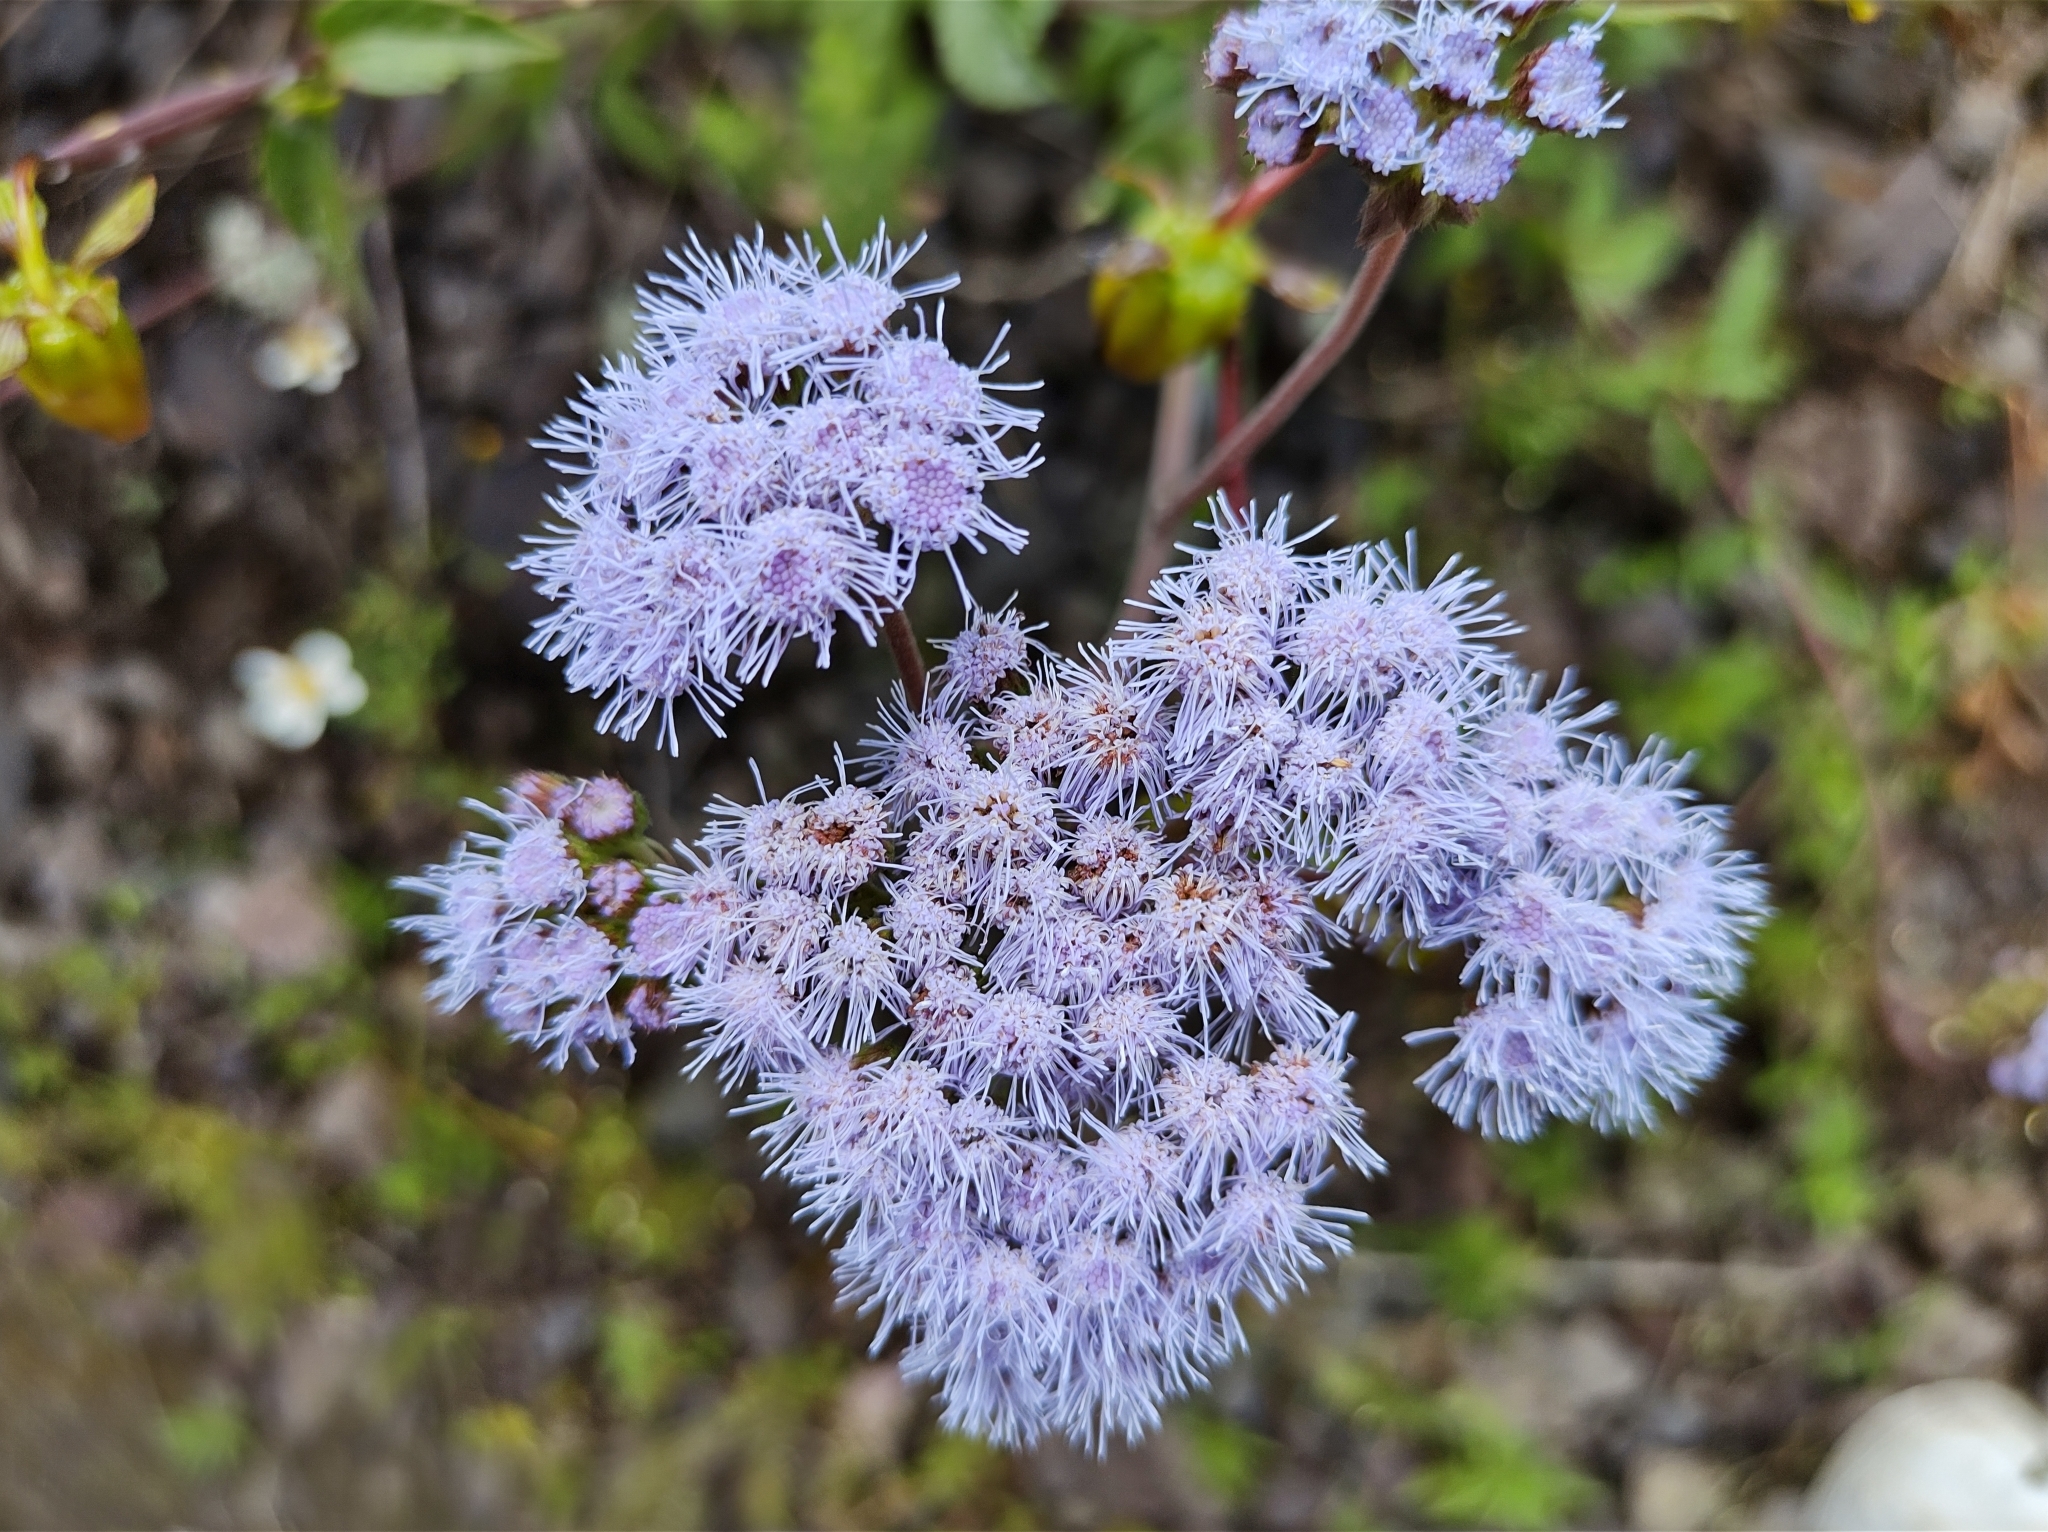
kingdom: Plantae
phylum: Tracheophyta
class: Magnoliopsida
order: Asterales
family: Asteraceae
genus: Ageratum
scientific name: Ageratum corymbosum
